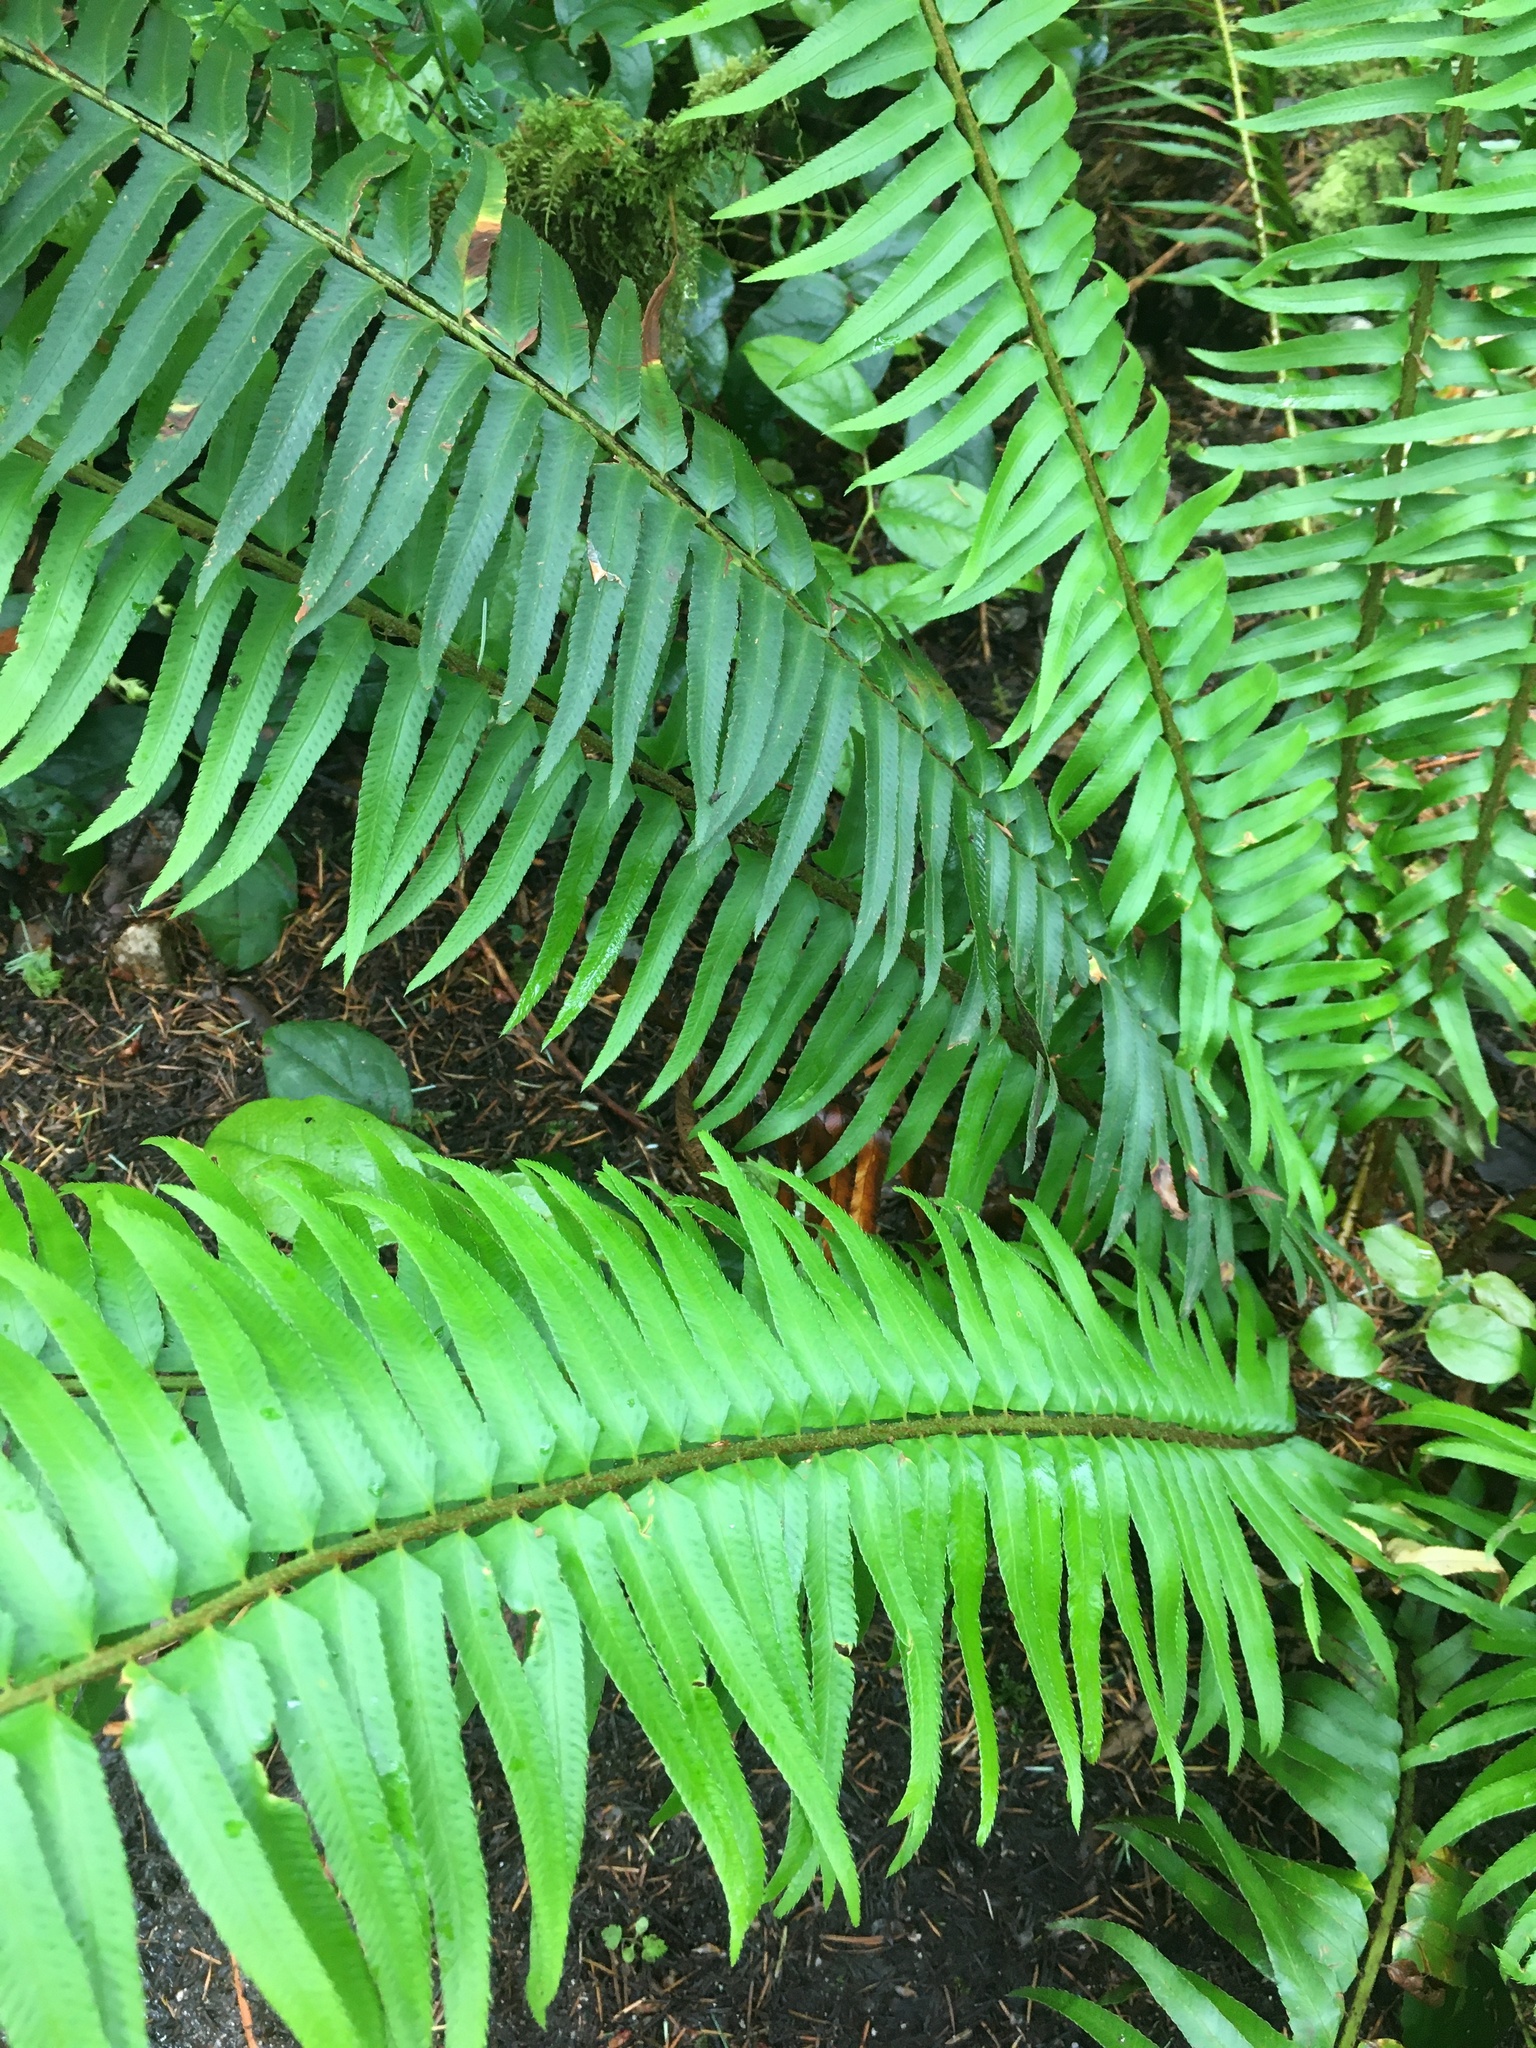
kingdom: Plantae
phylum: Tracheophyta
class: Polypodiopsida
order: Polypodiales
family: Dryopteridaceae
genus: Polystichum
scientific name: Polystichum munitum
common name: Western sword-fern
